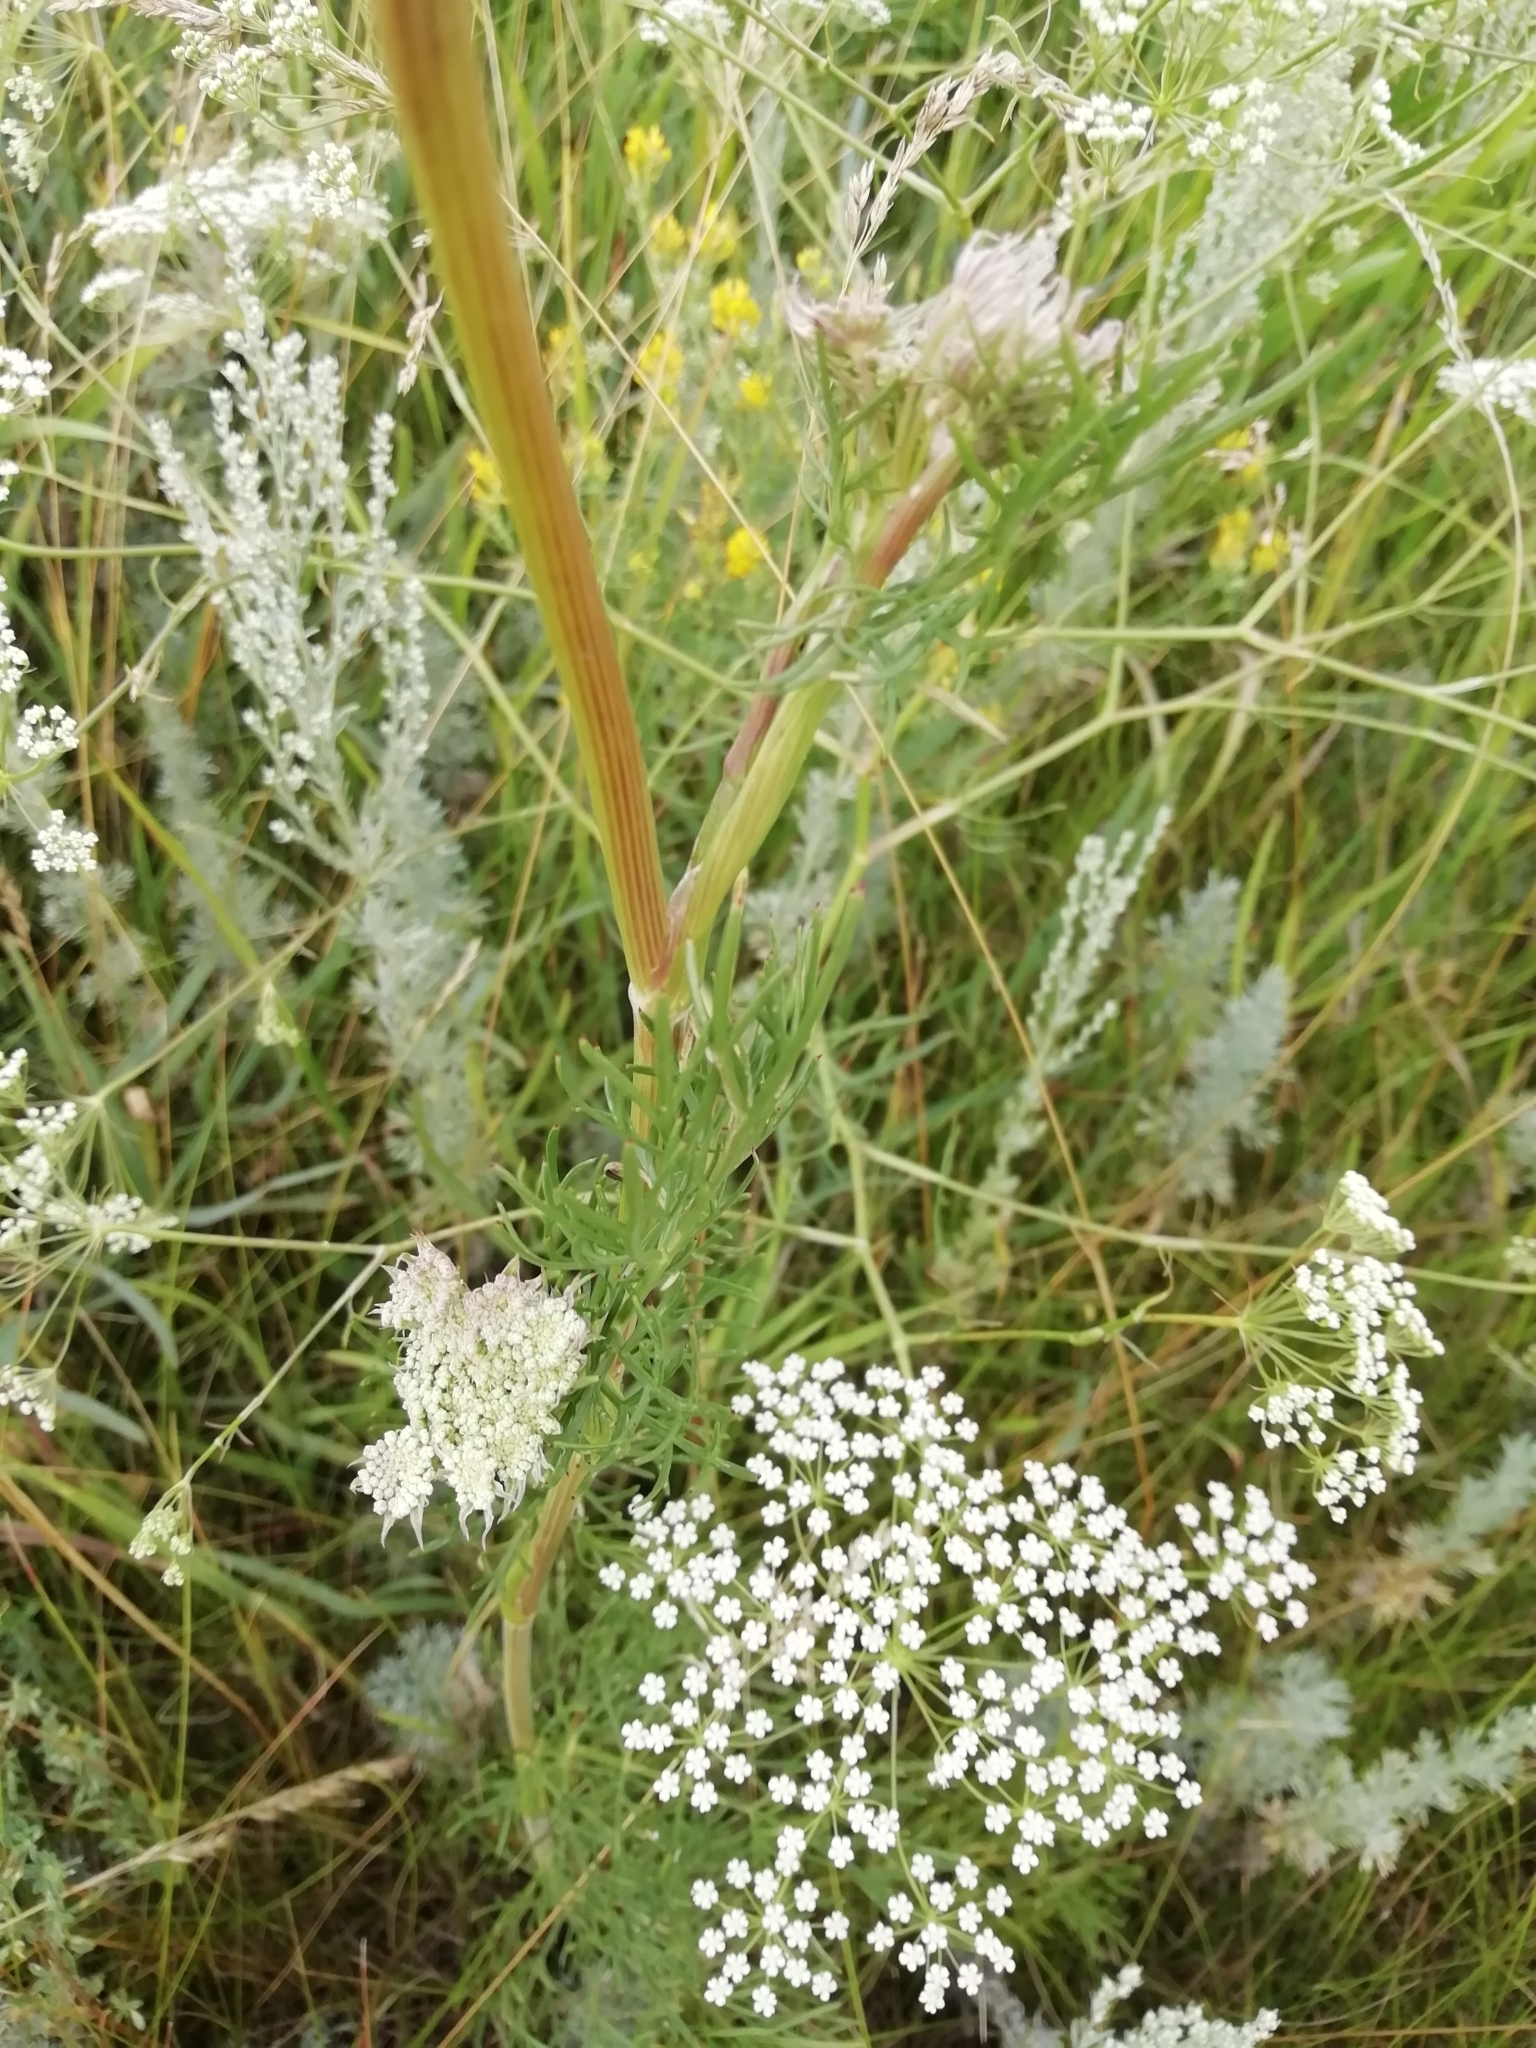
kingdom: Plantae
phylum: Tracheophyta
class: Magnoliopsida
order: Apiales
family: Apiaceae
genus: Seseli
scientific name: Seseli annuum
